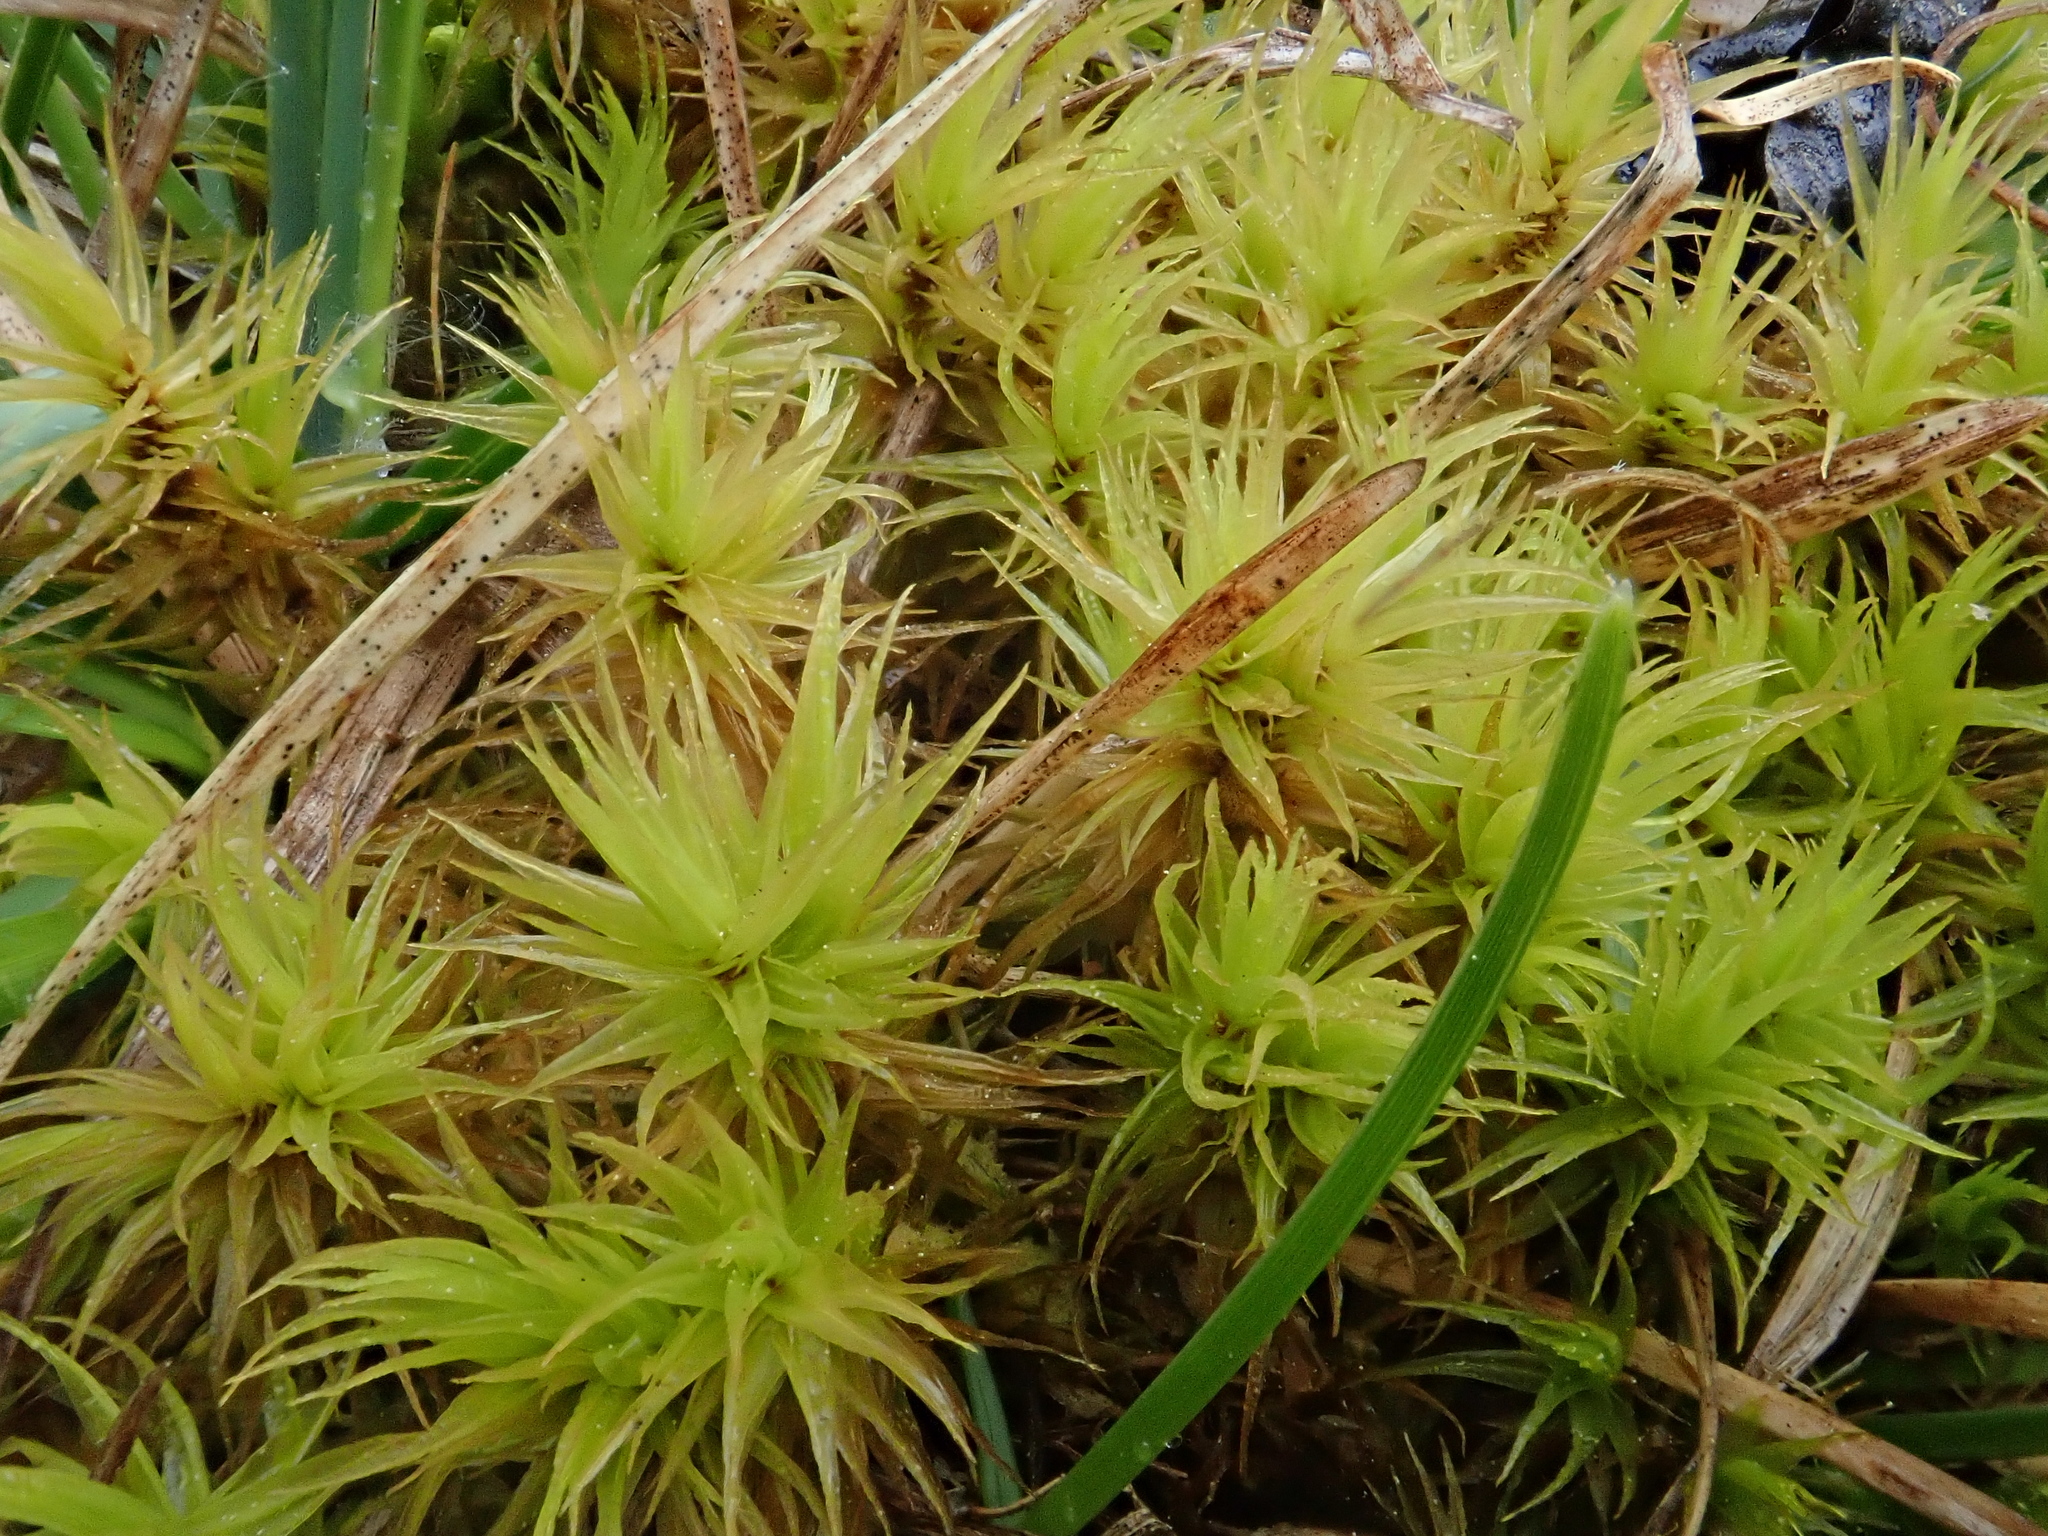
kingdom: Plantae
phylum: Bryophyta
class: Bryopsida
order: Dicranales
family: Dicranaceae
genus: Dicranum
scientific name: Dicranum polysetum
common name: Rugose fork-moss
